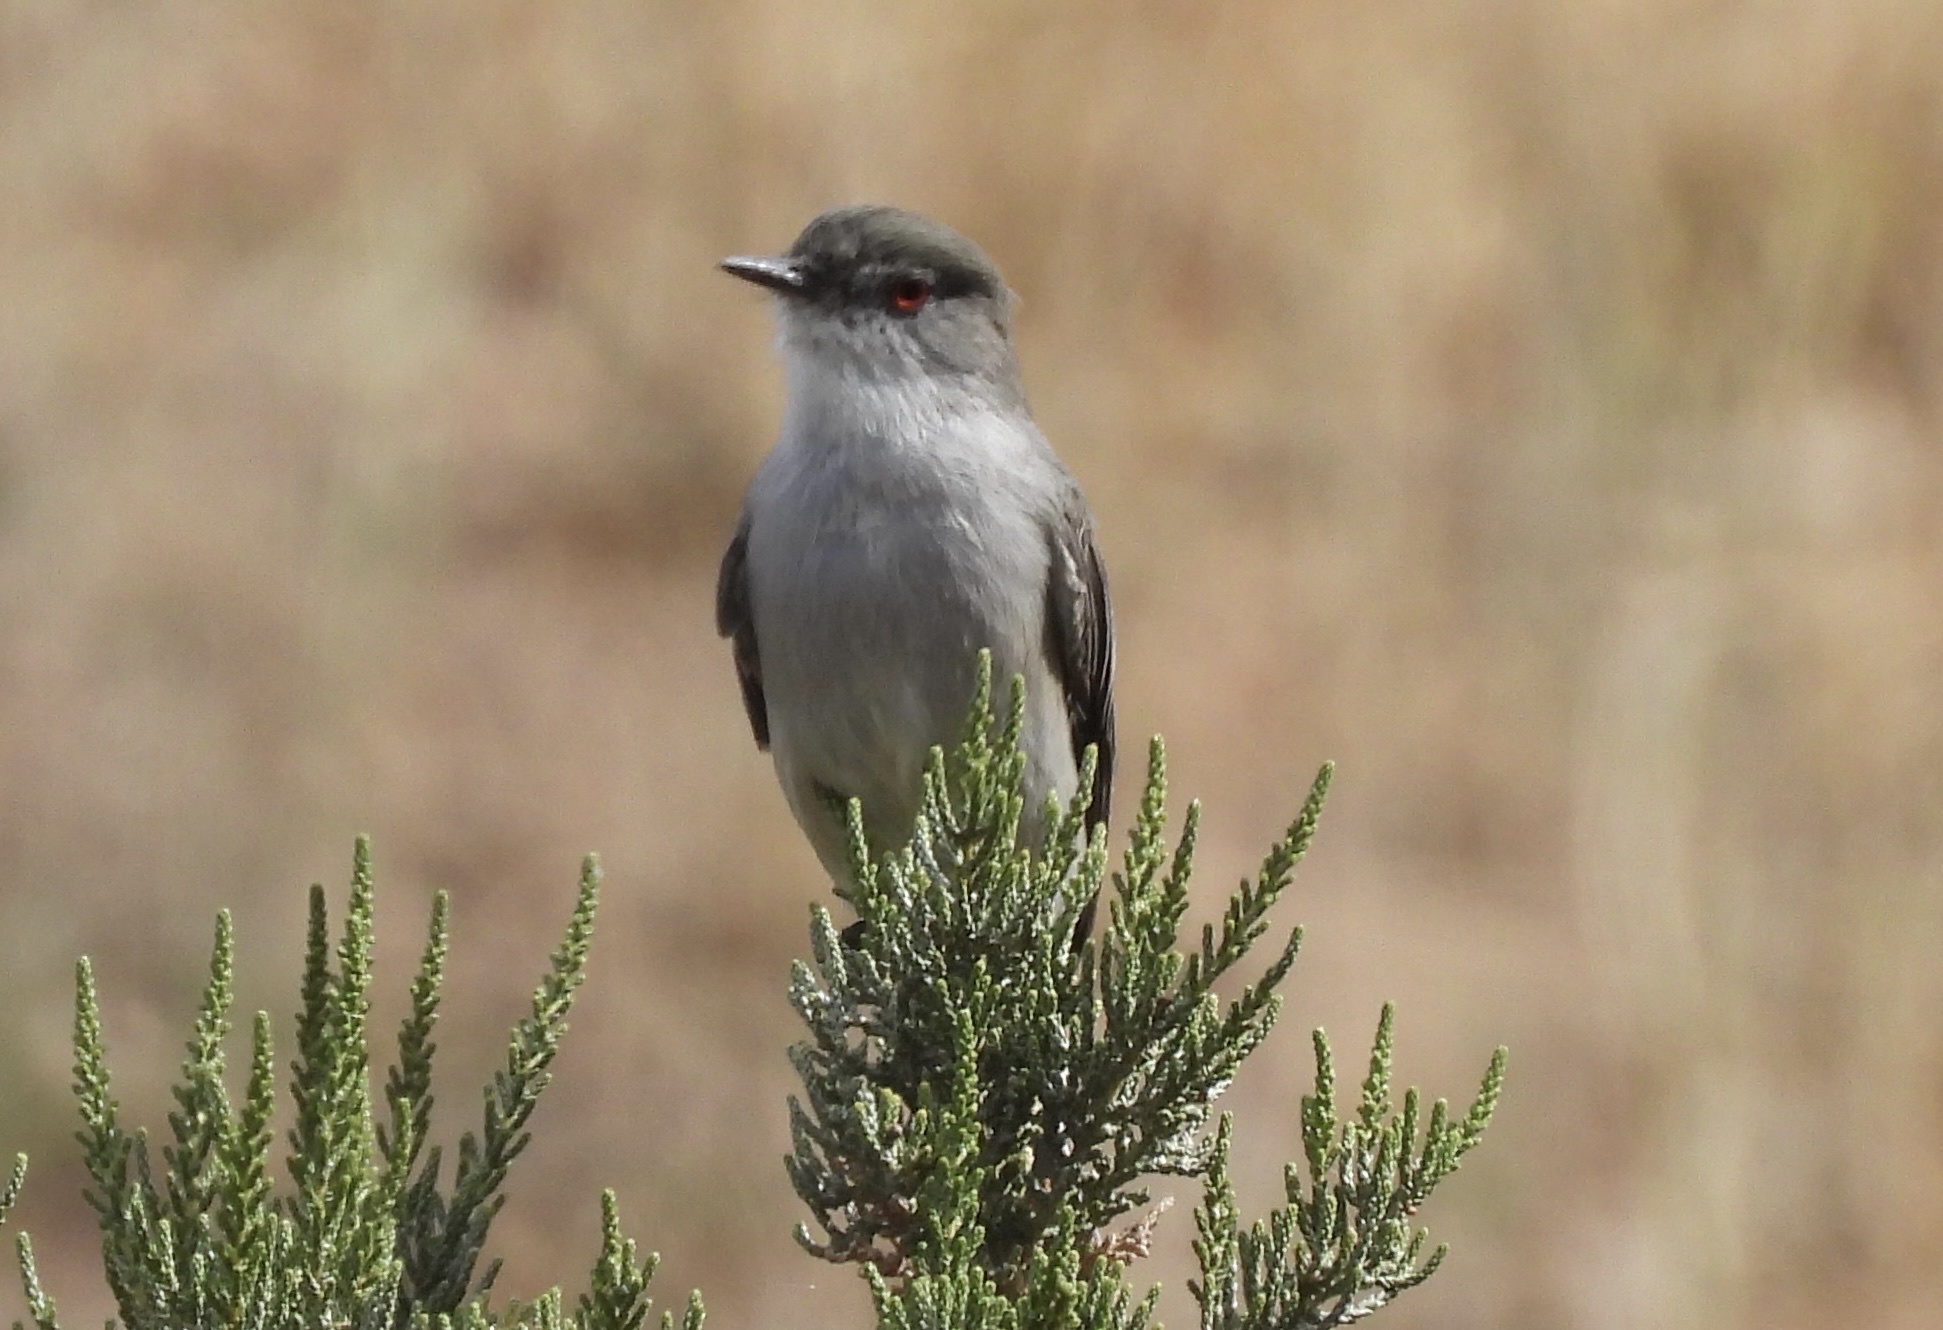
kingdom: Animalia
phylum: Chordata
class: Aves
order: Passeriformes
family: Tyrannidae
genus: Xolmis
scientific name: Xolmis pyrope
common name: Fire-eyed diucon
